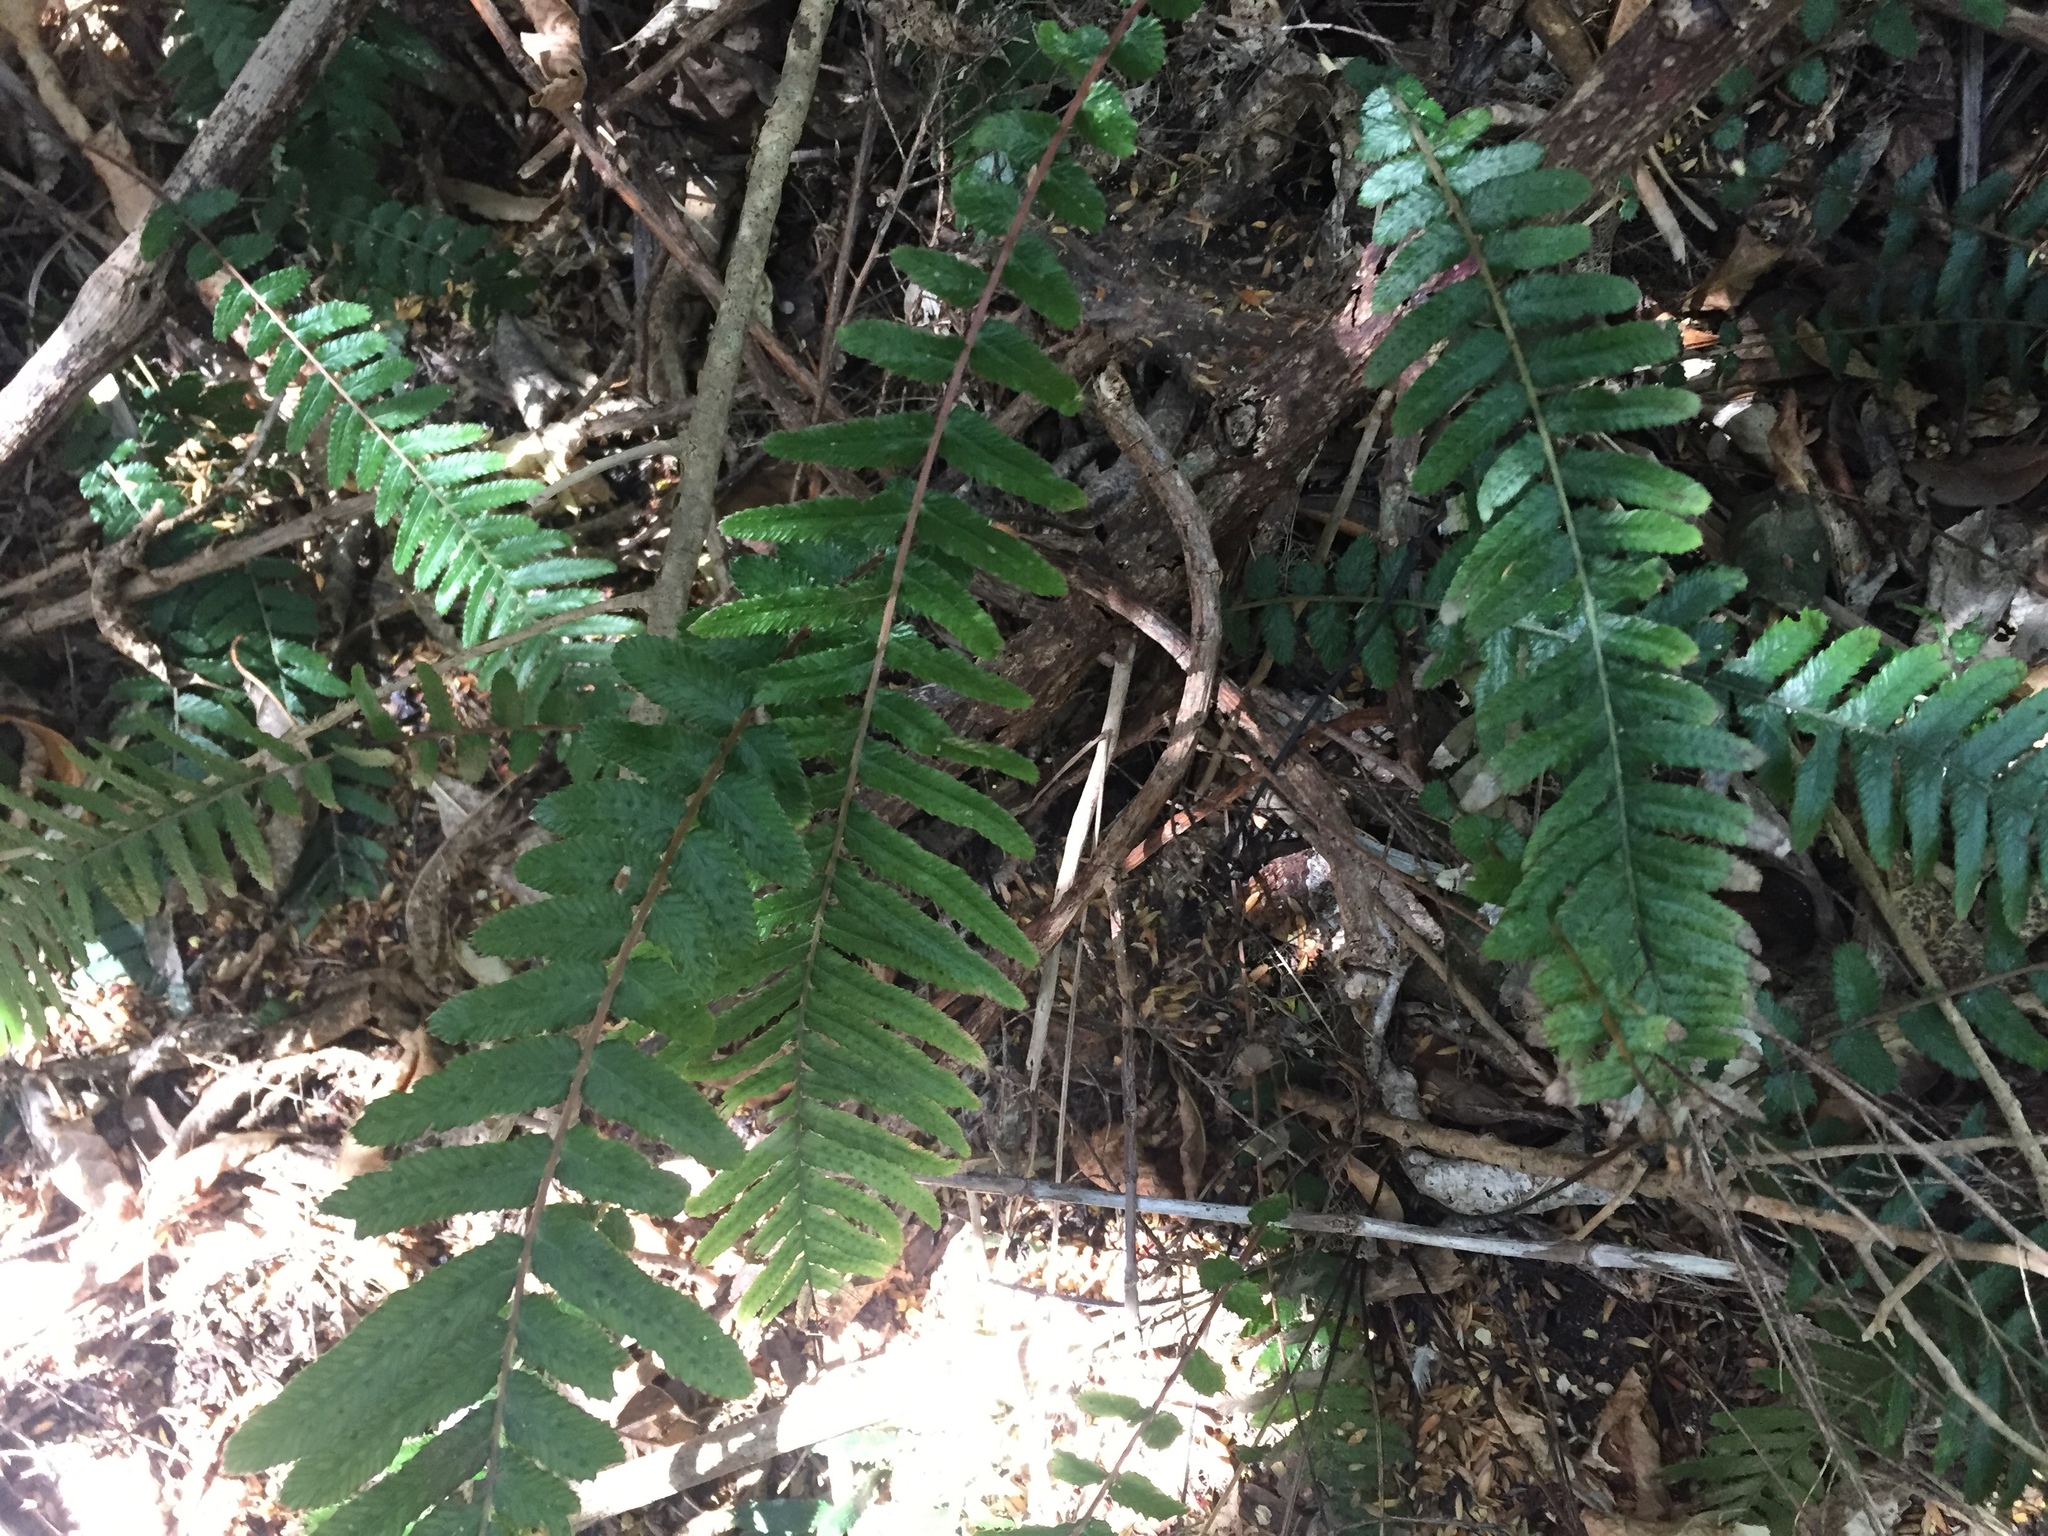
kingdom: Plantae
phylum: Tracheophyta
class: Polypodiopsida
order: Polypodiales
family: Blechnaceae
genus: Doodia
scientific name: Doodia australis
